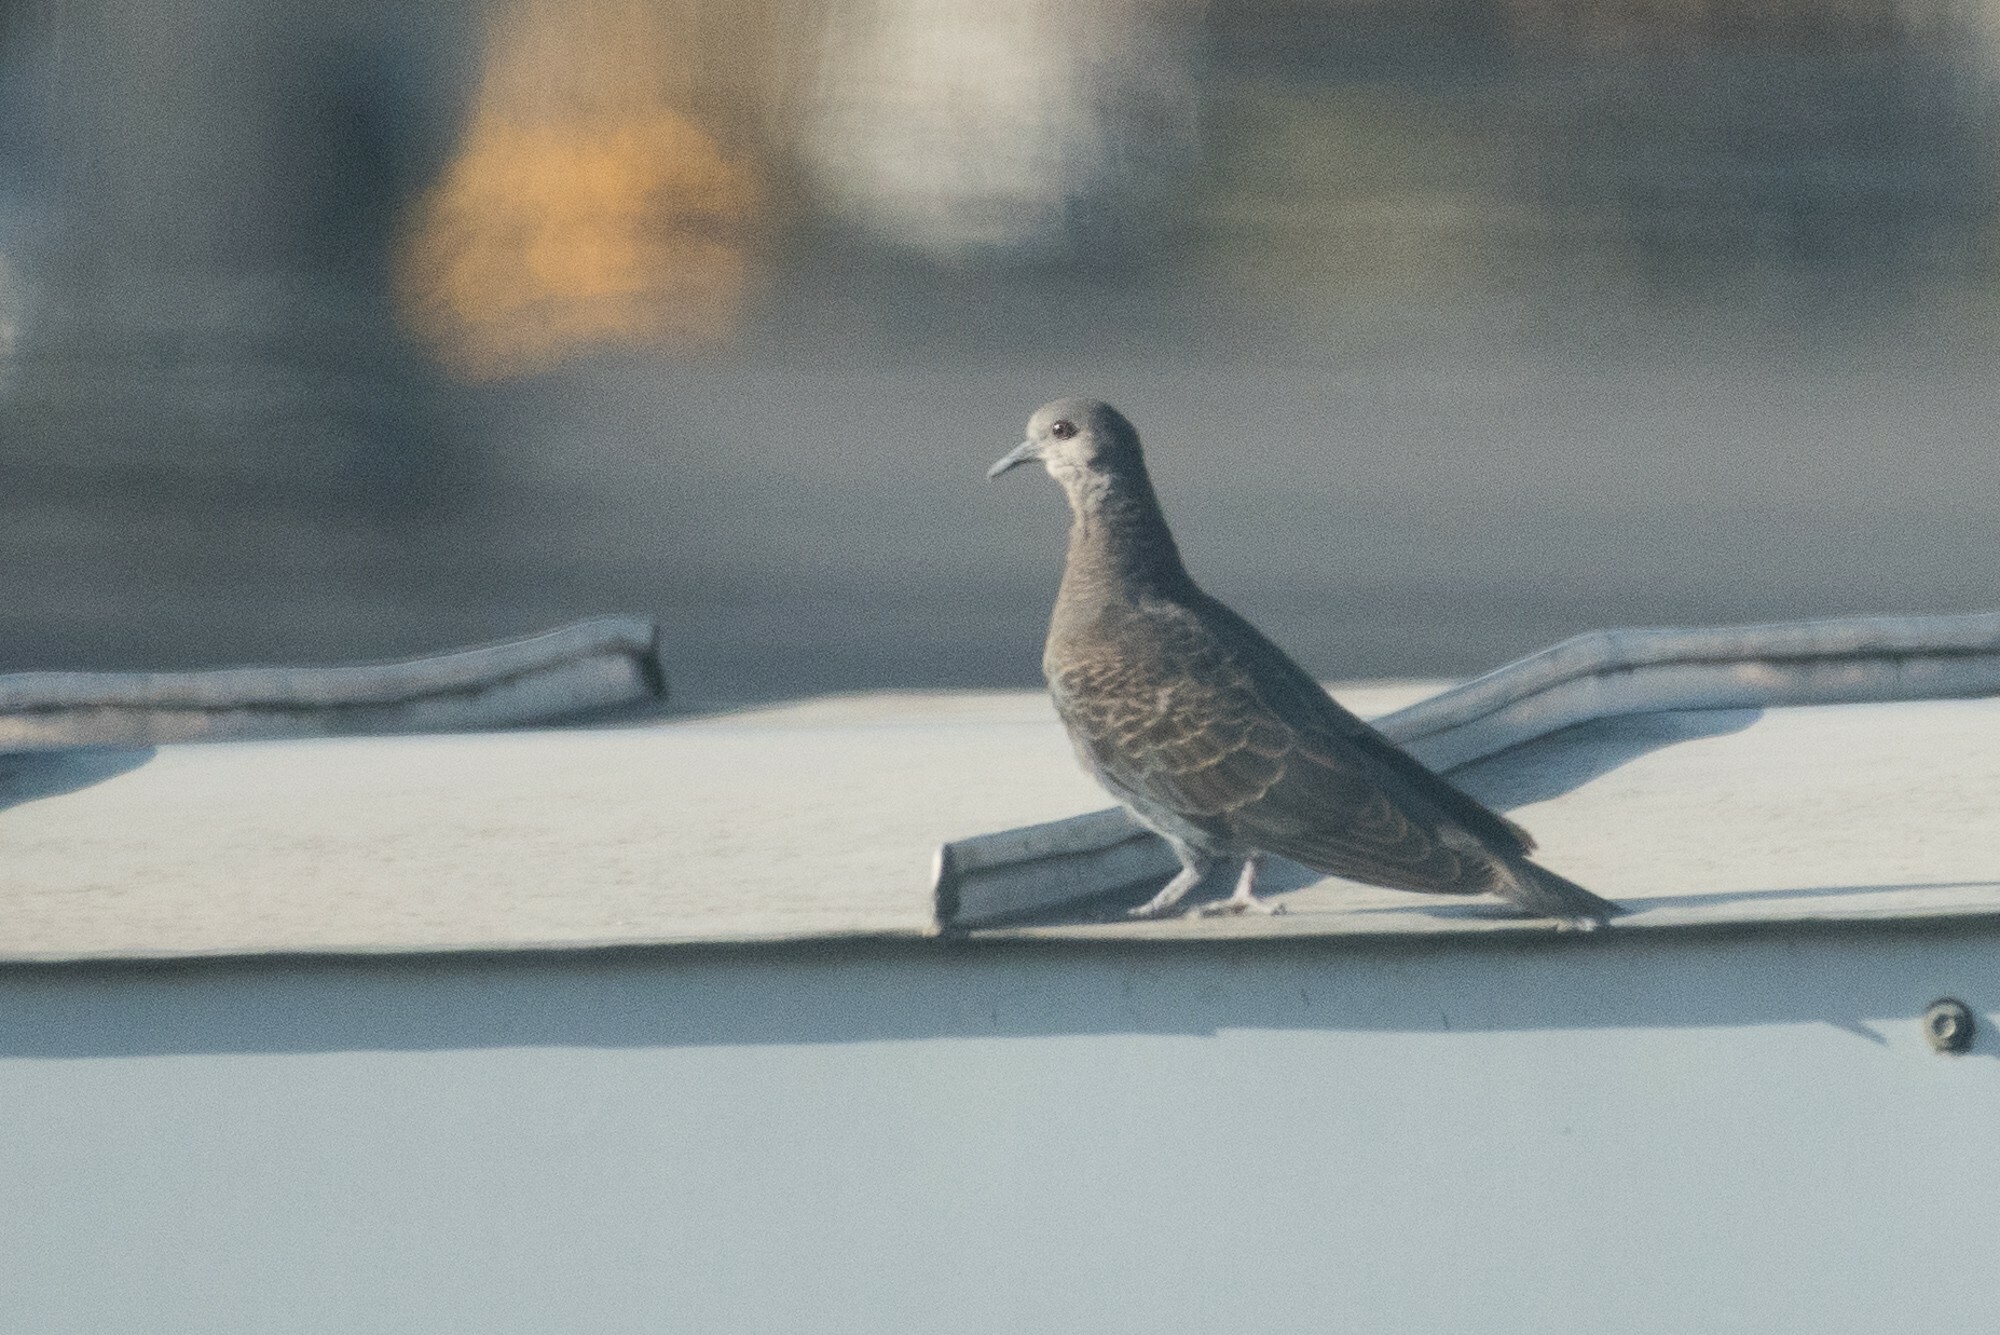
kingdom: Animalia
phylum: Chordata
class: Aves
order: Columbiformes
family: Columbidae
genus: Streptopelia
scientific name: Streptopelia lugens
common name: Dusky turtle dove
